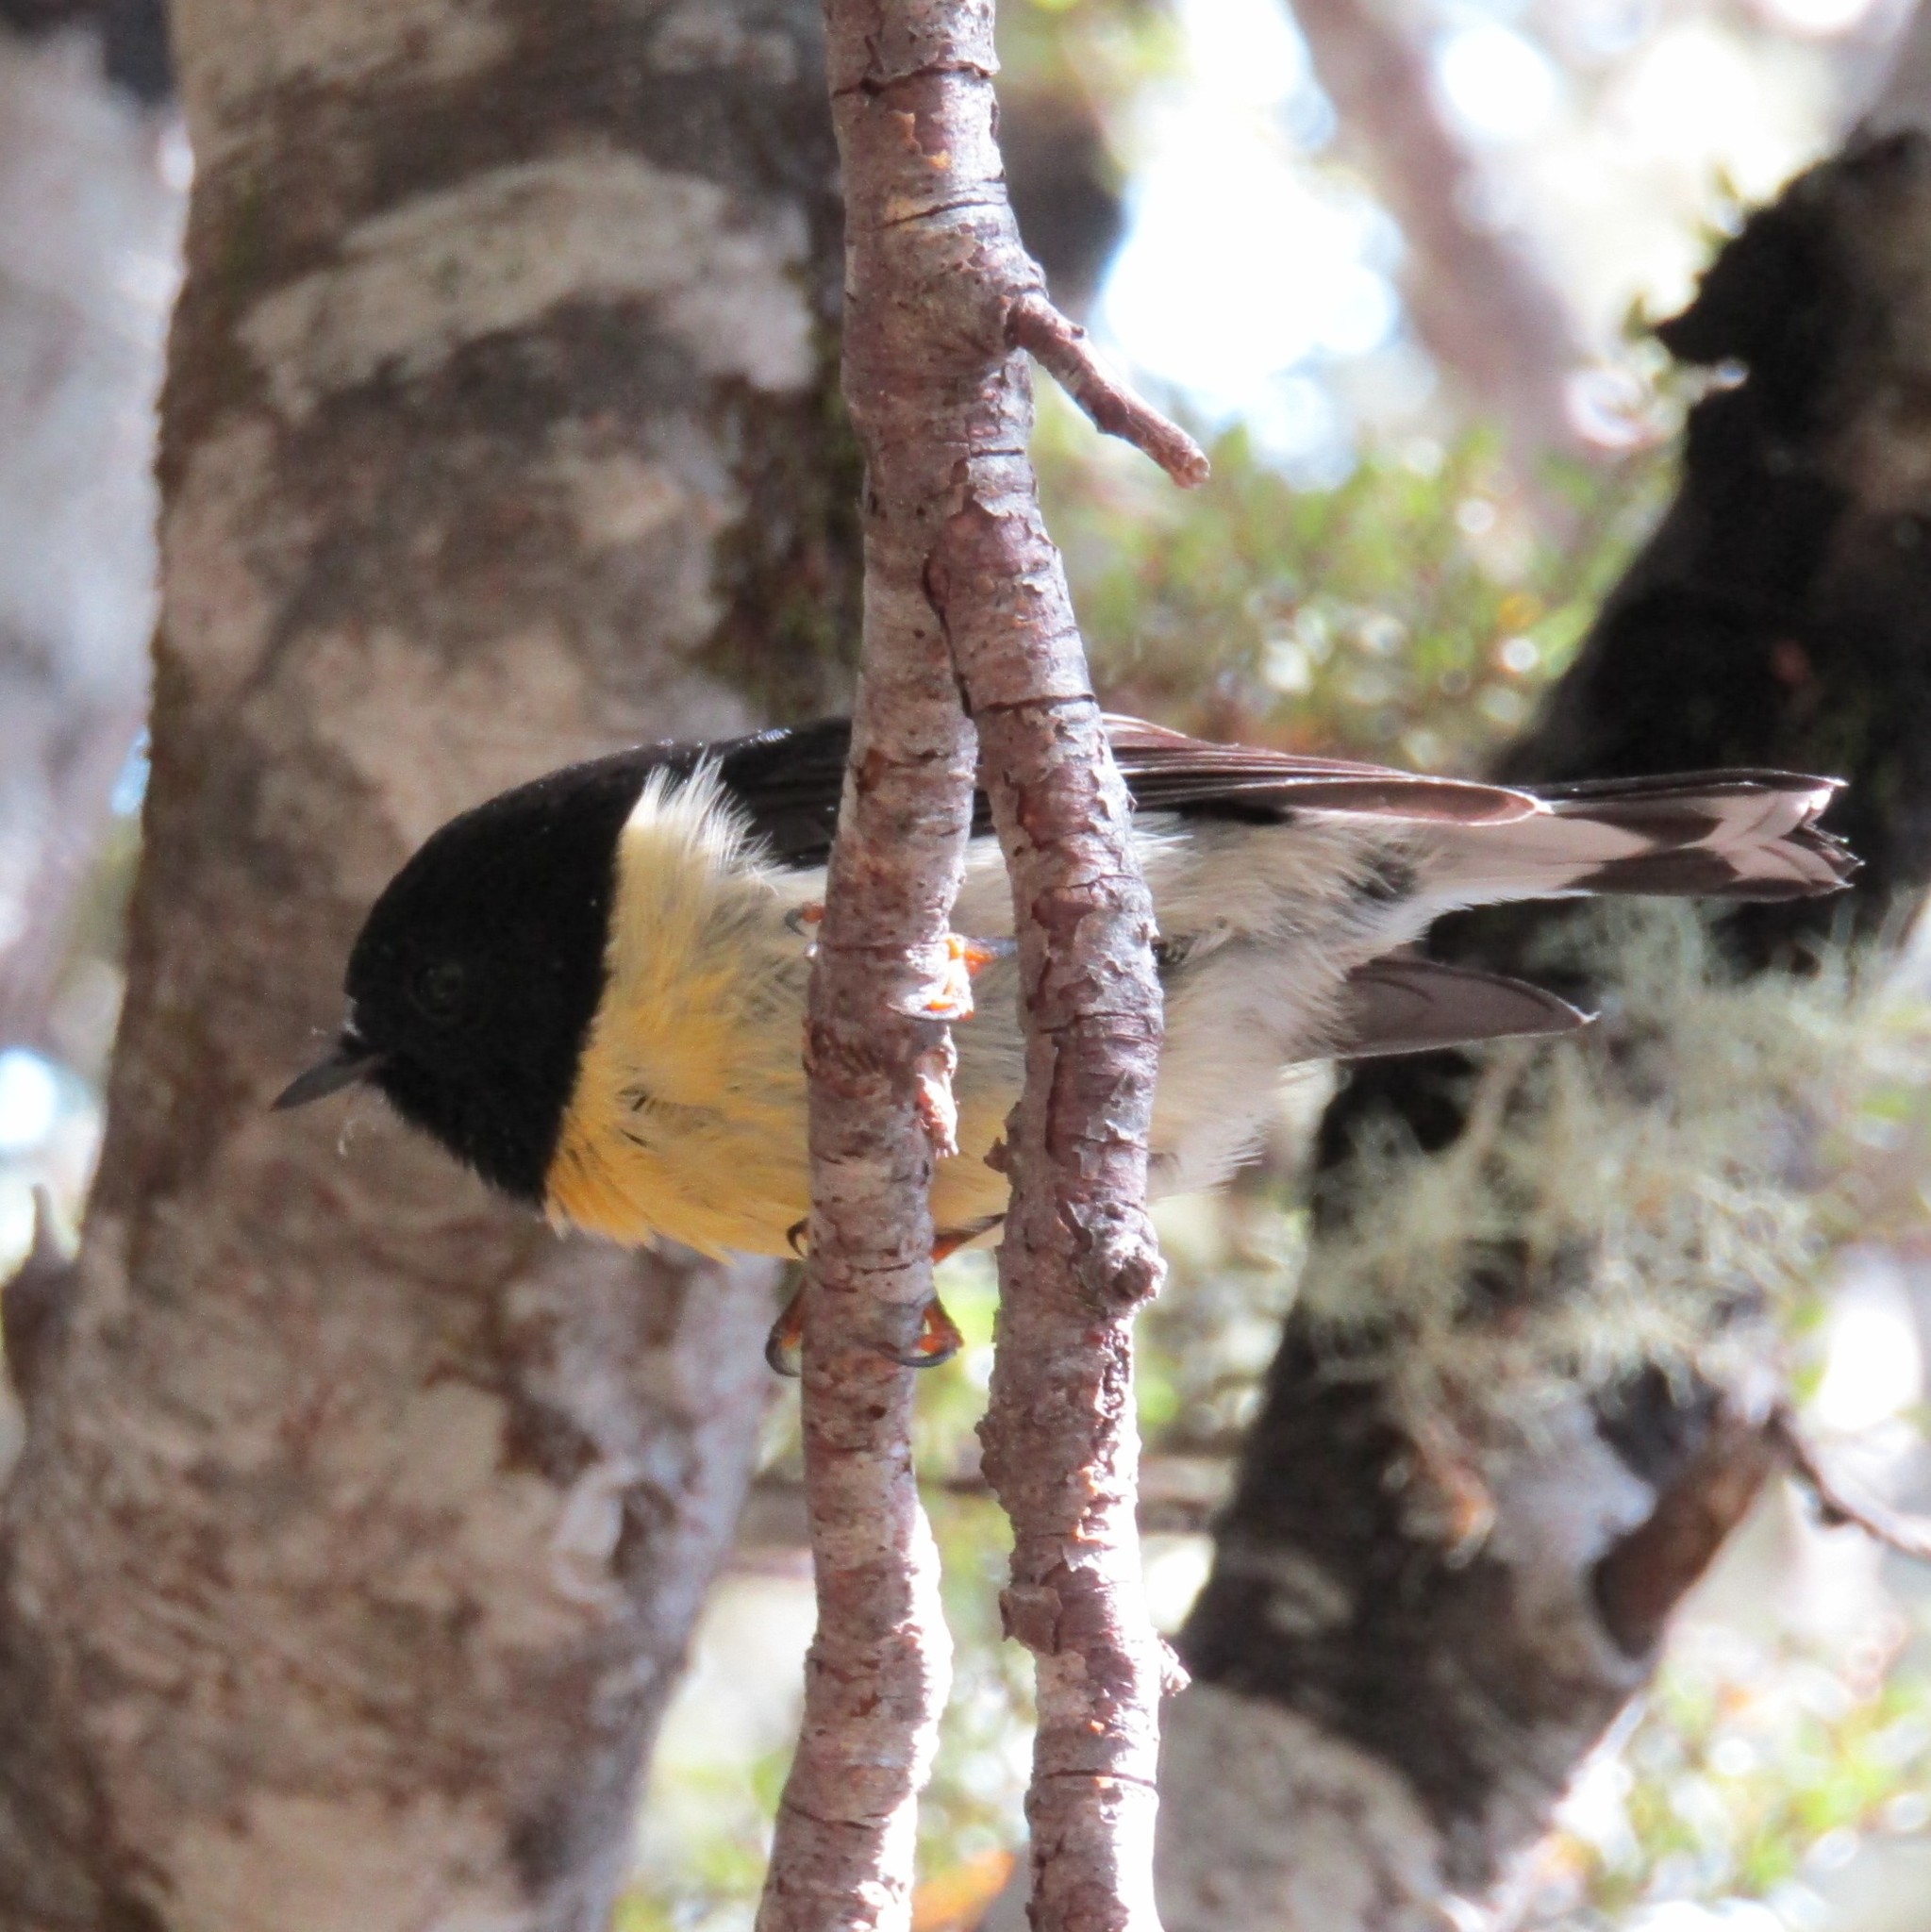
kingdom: Animalia
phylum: Chordata
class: Aves
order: Passeriformes
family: Petroicidae
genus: Petroica
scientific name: Petroica macrocephala
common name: Tomtit
